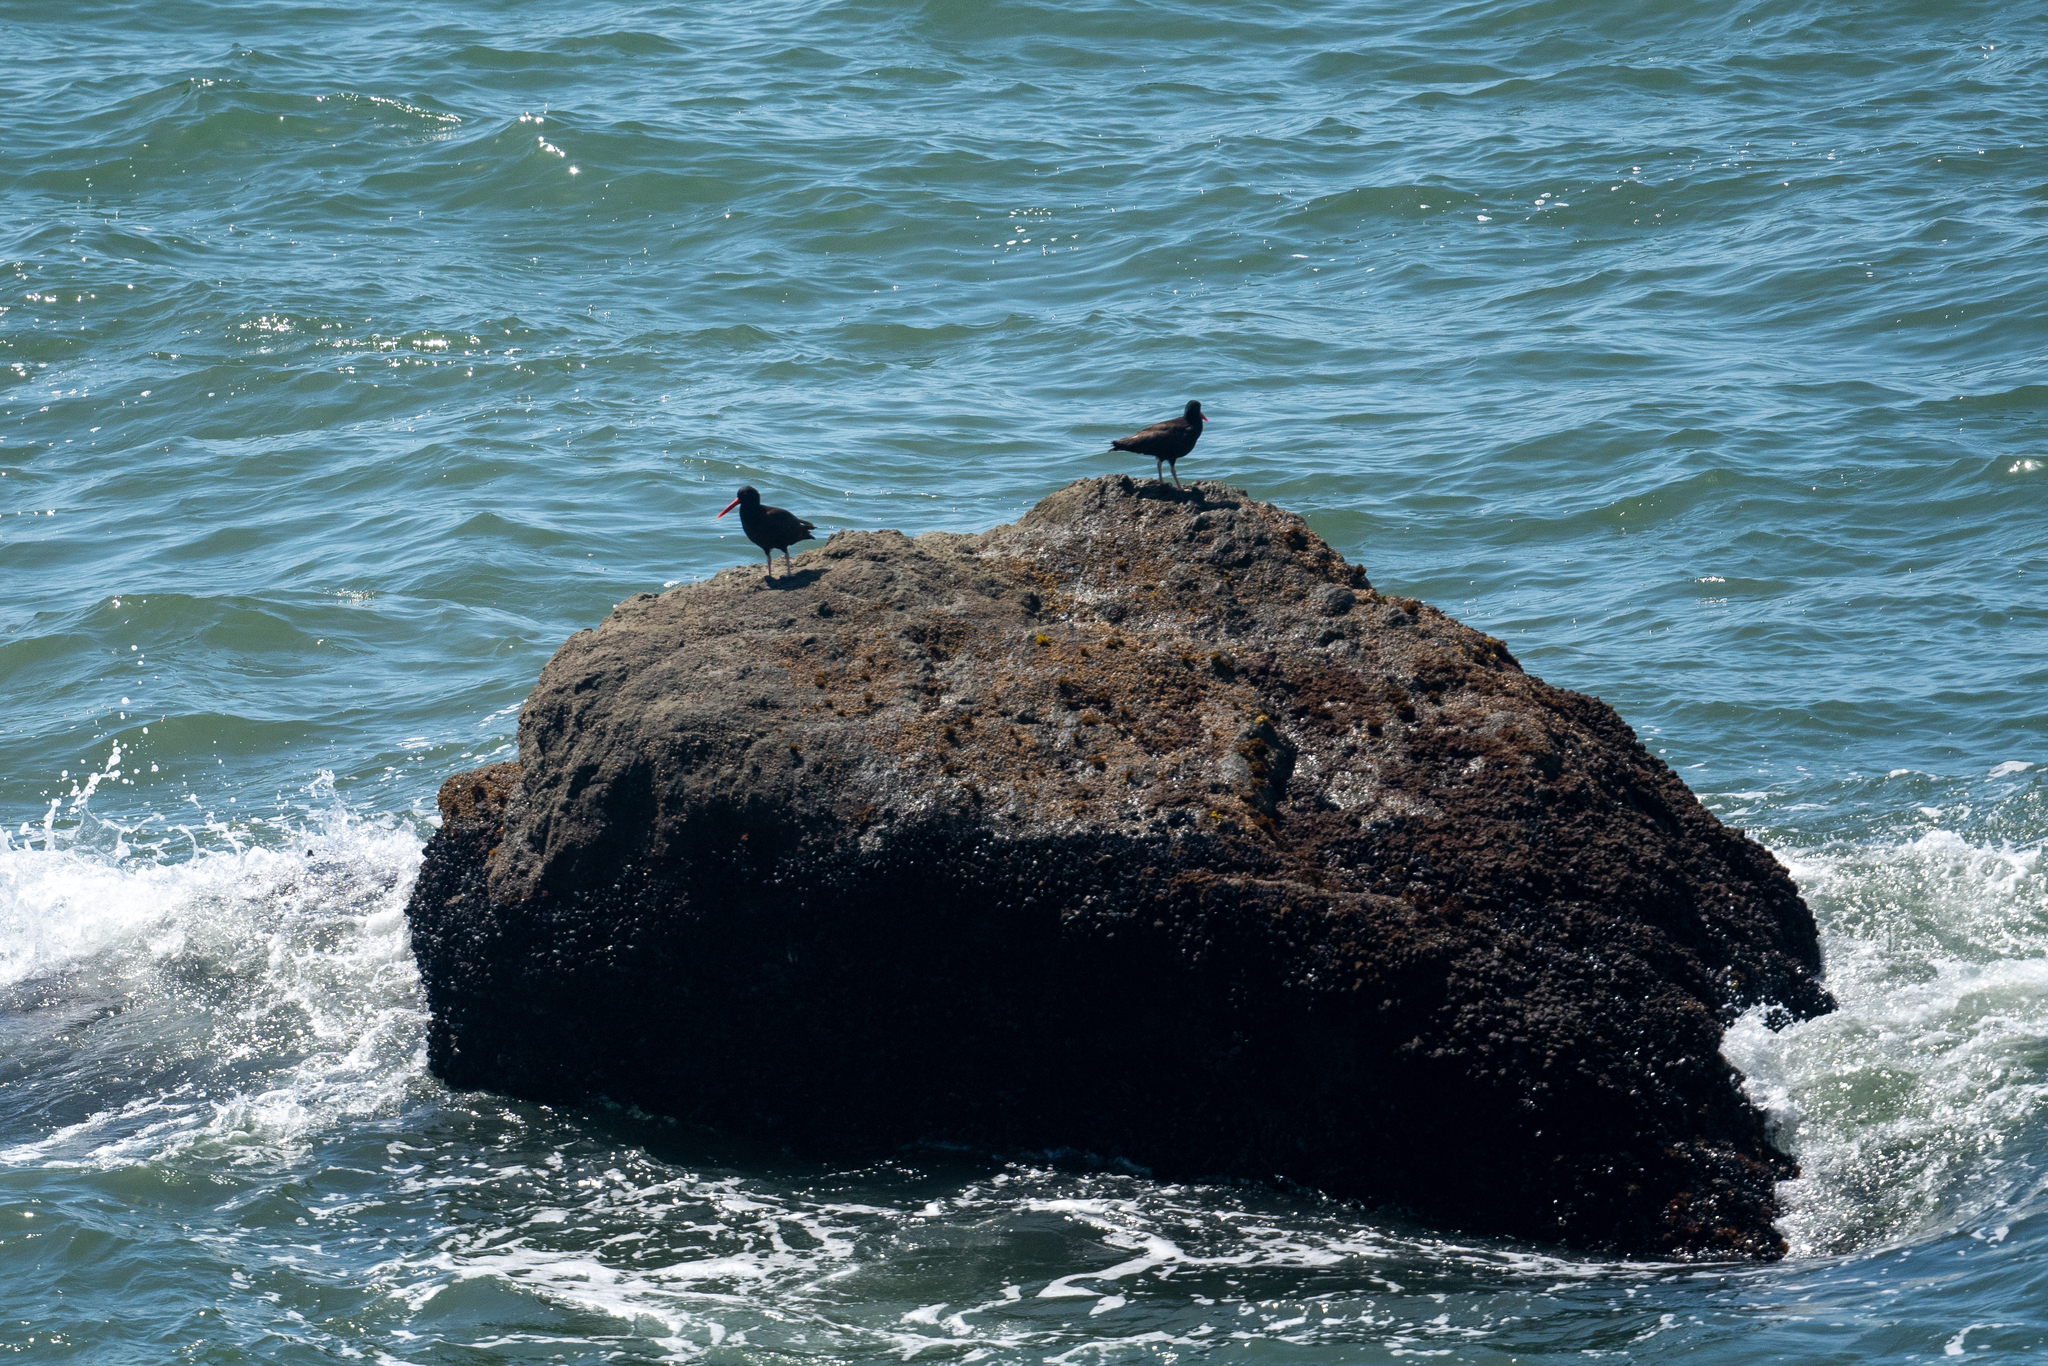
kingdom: Animalia
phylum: Chordata
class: Aves
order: Charadriiformes
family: Haematopodidae
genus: Haematopus
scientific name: Haematopus bachmani
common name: Black oystercatcher
